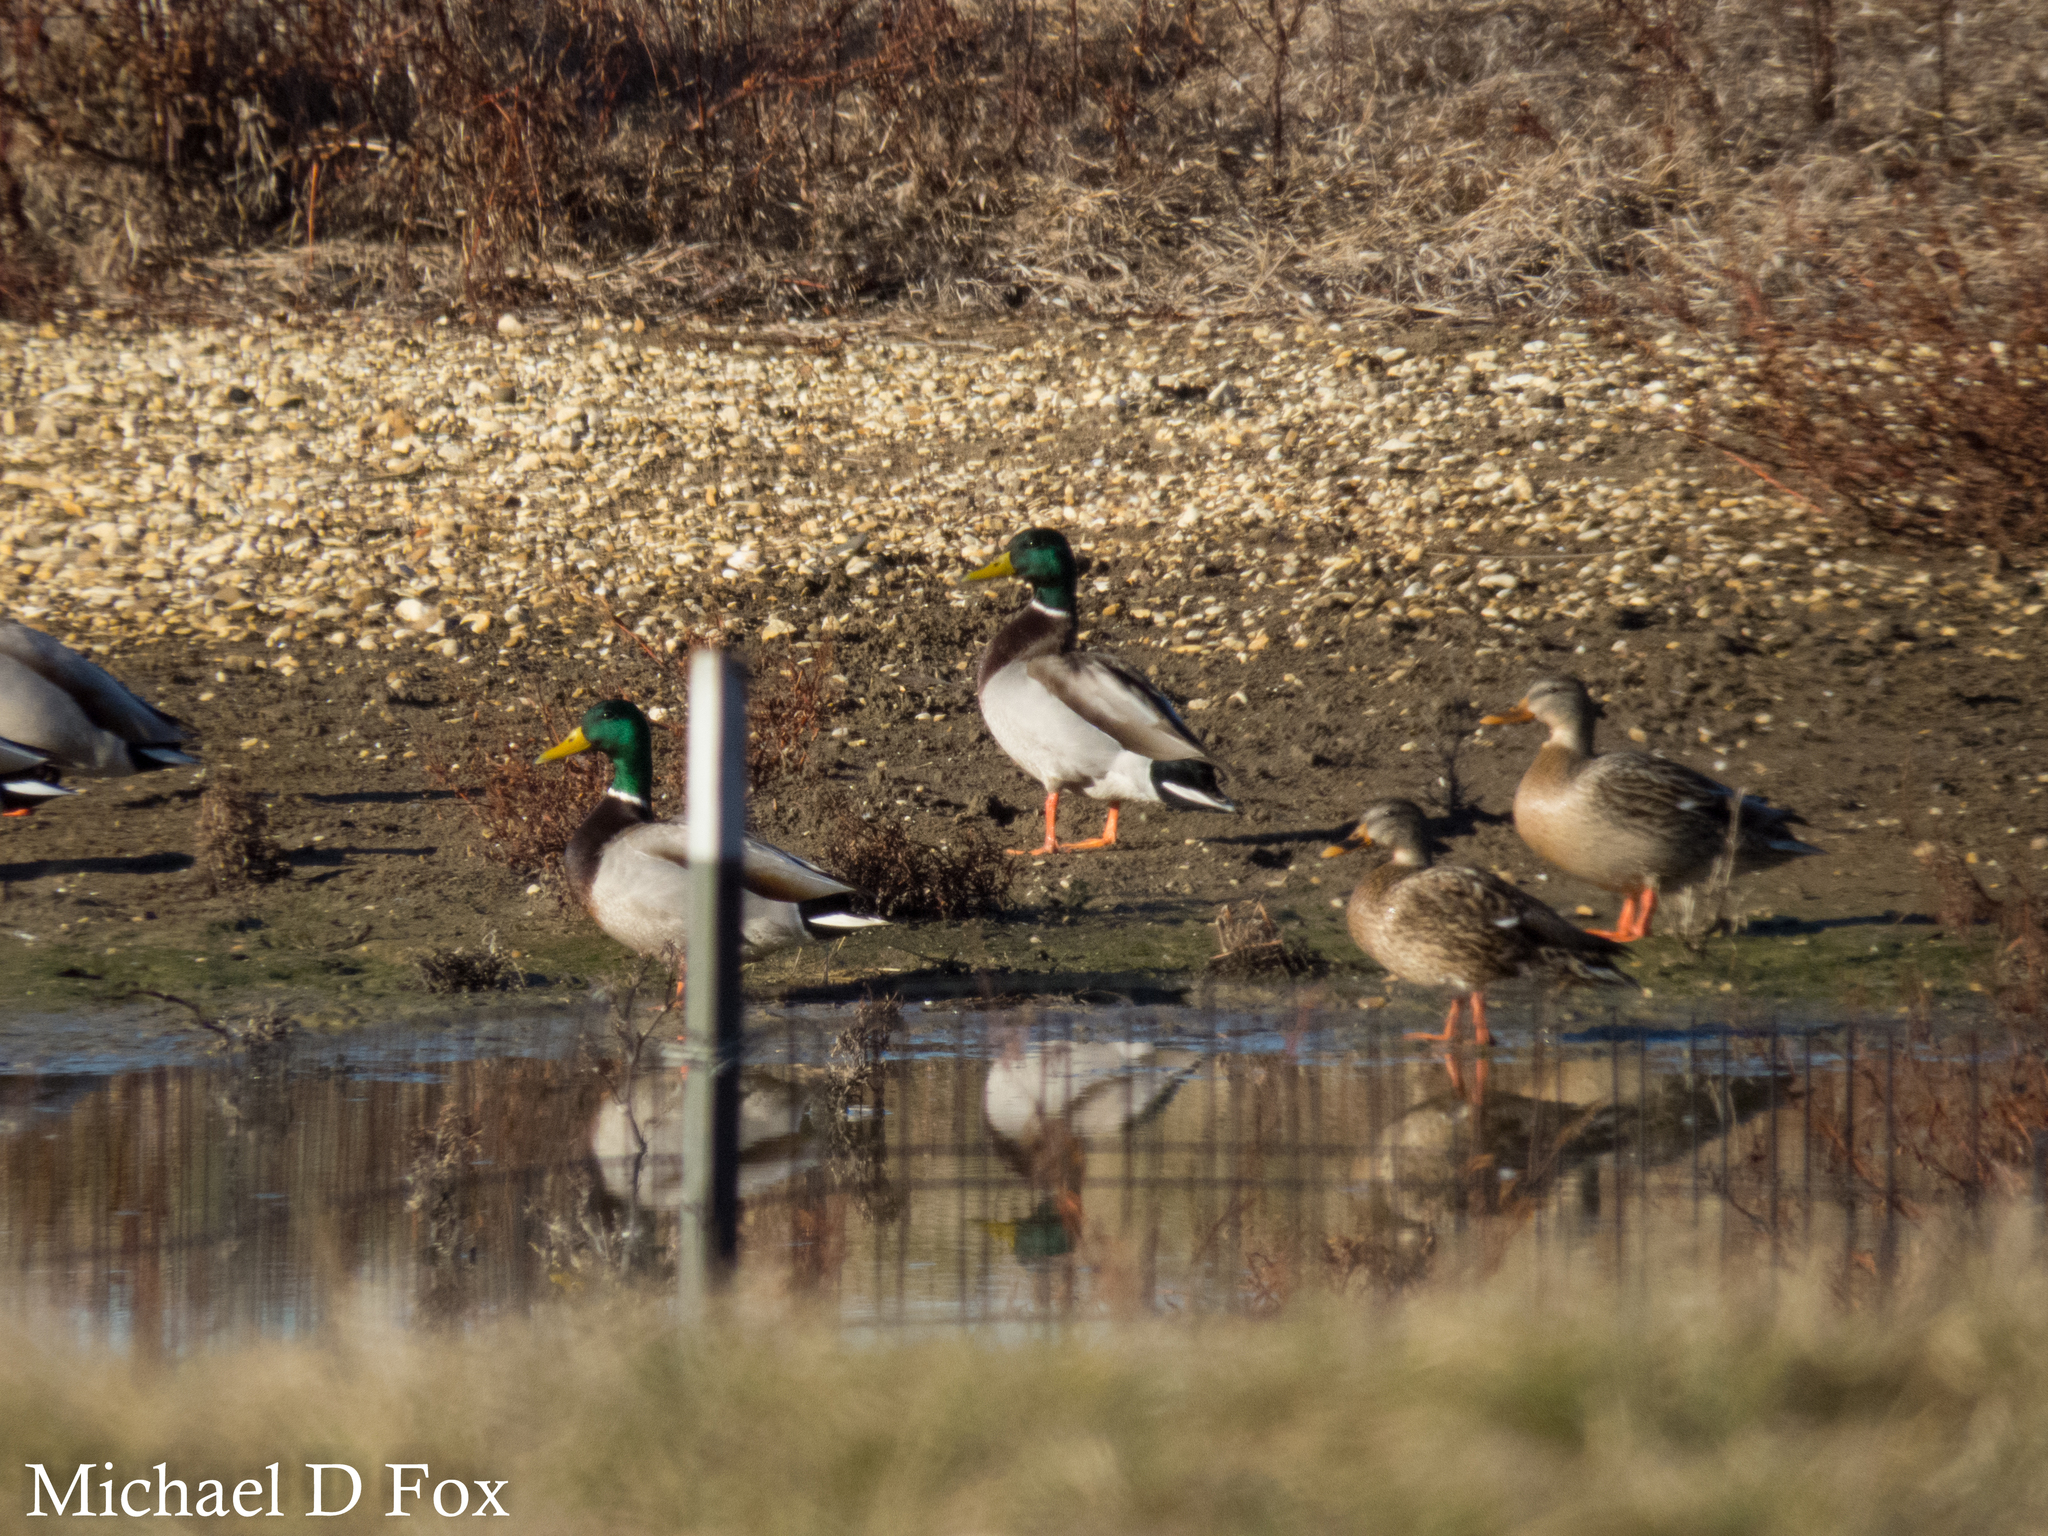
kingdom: Animalia
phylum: Chordata
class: Aves
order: Anseriformes
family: Anatidae
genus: Anas
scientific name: Anas platyrhynchos
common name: Mallard
